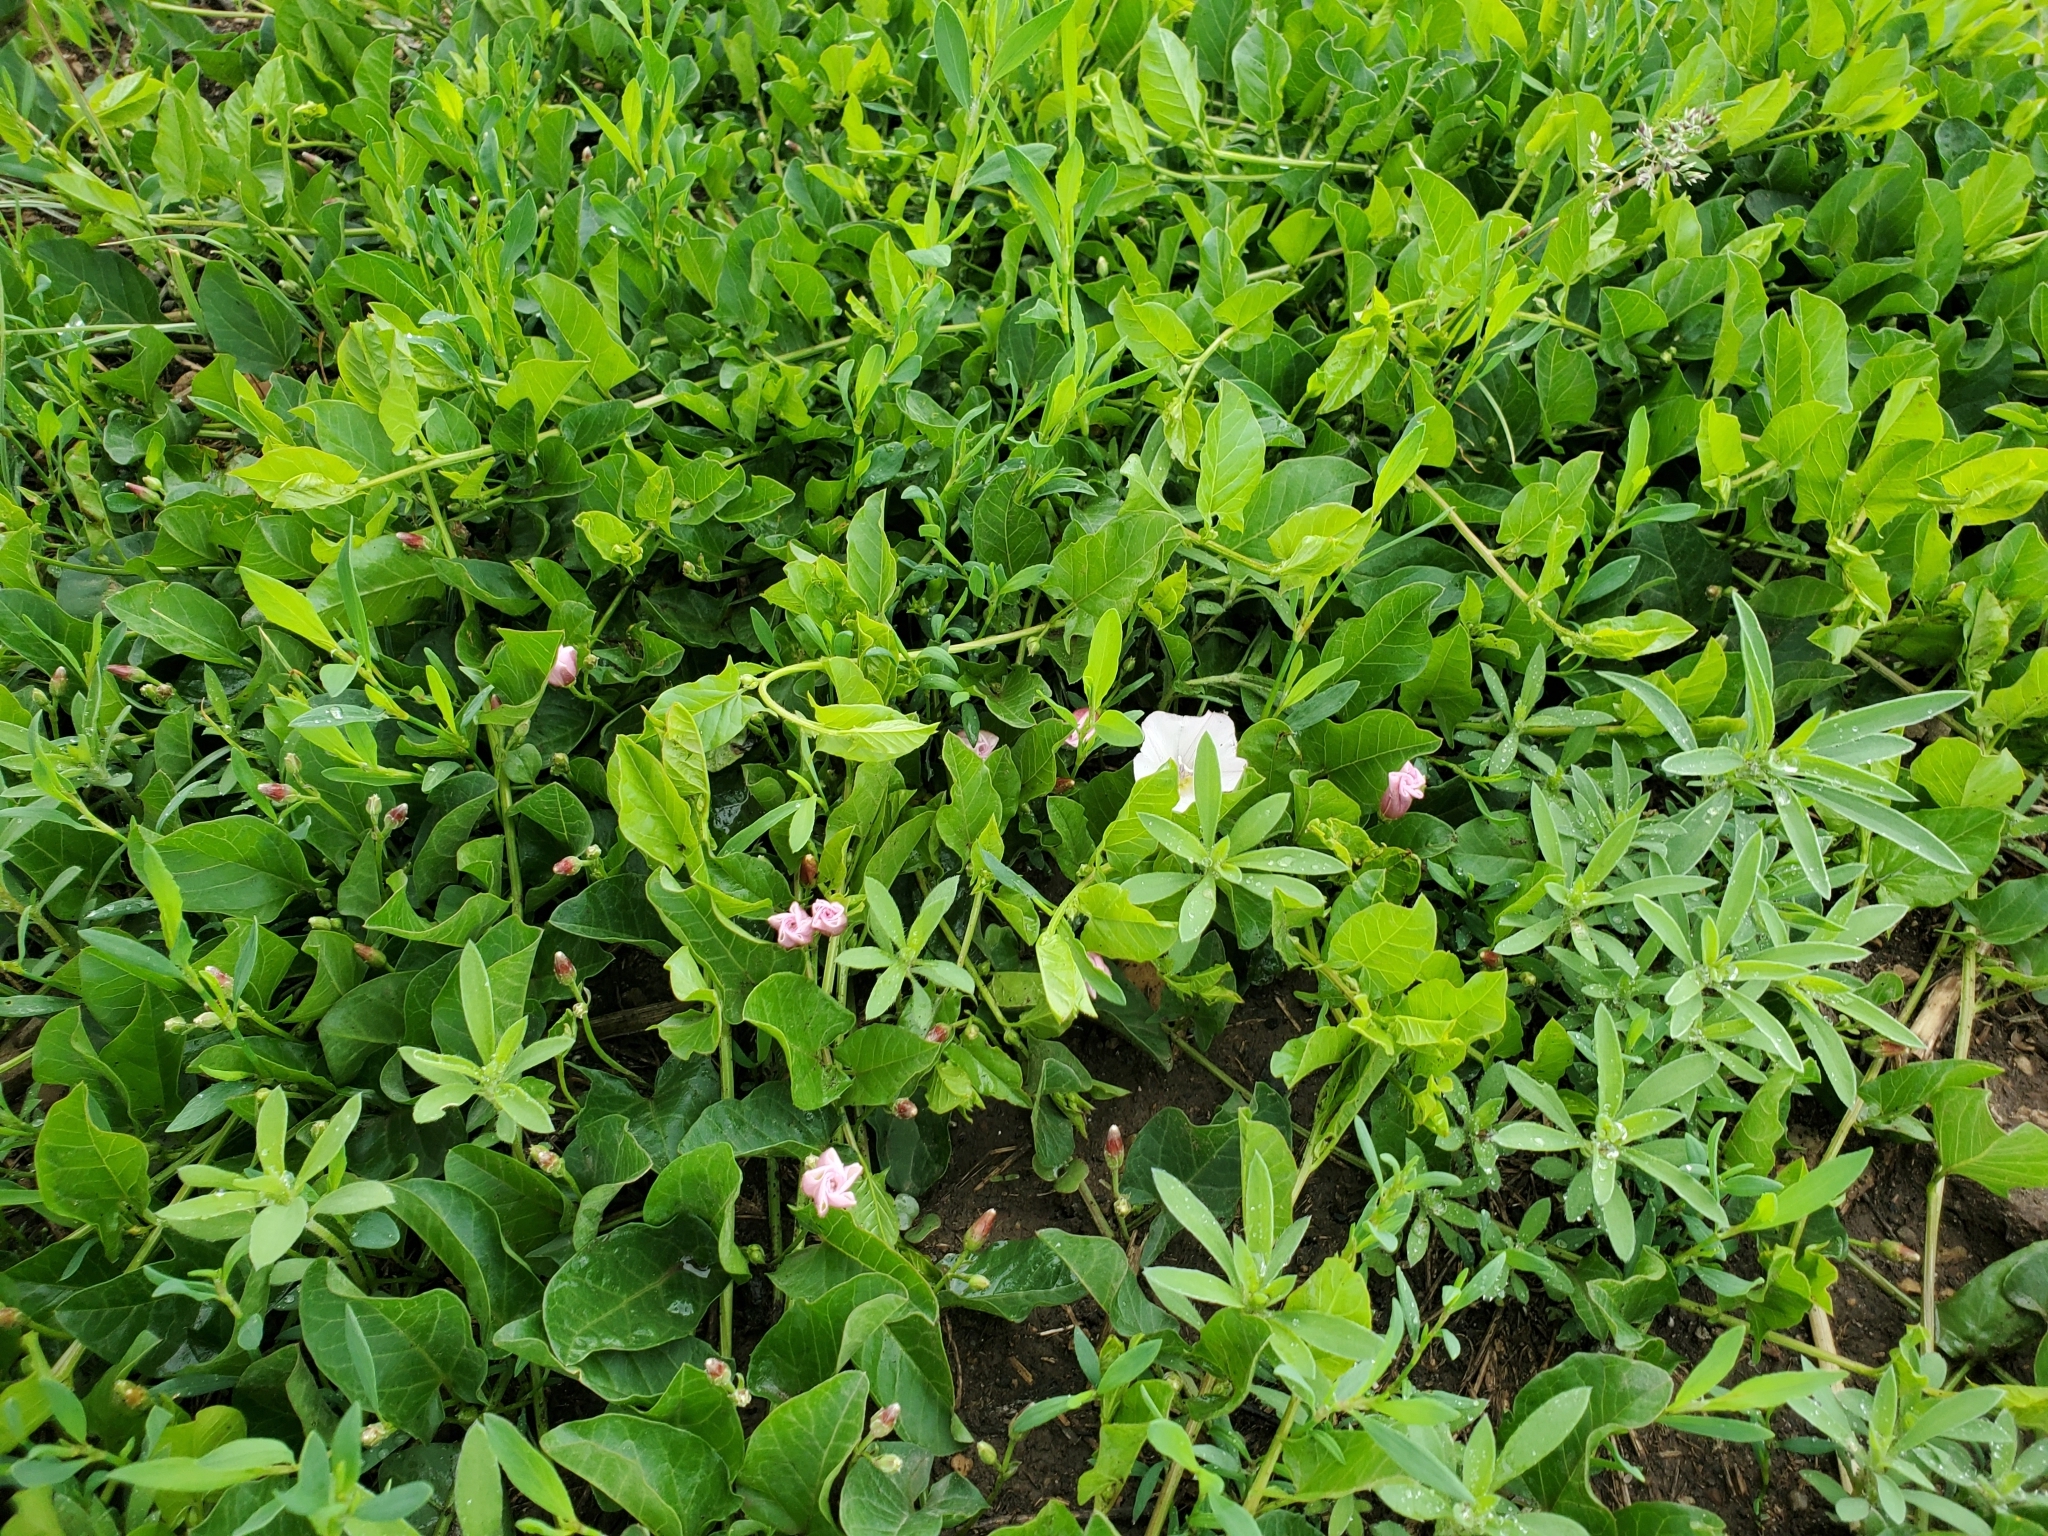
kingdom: Plantae
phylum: Tracheophyta
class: Magnoliopsida
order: Solanales
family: Convolvulaceae
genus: Convolvulus
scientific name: Convolvulus arvensis
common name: Field bindweed
